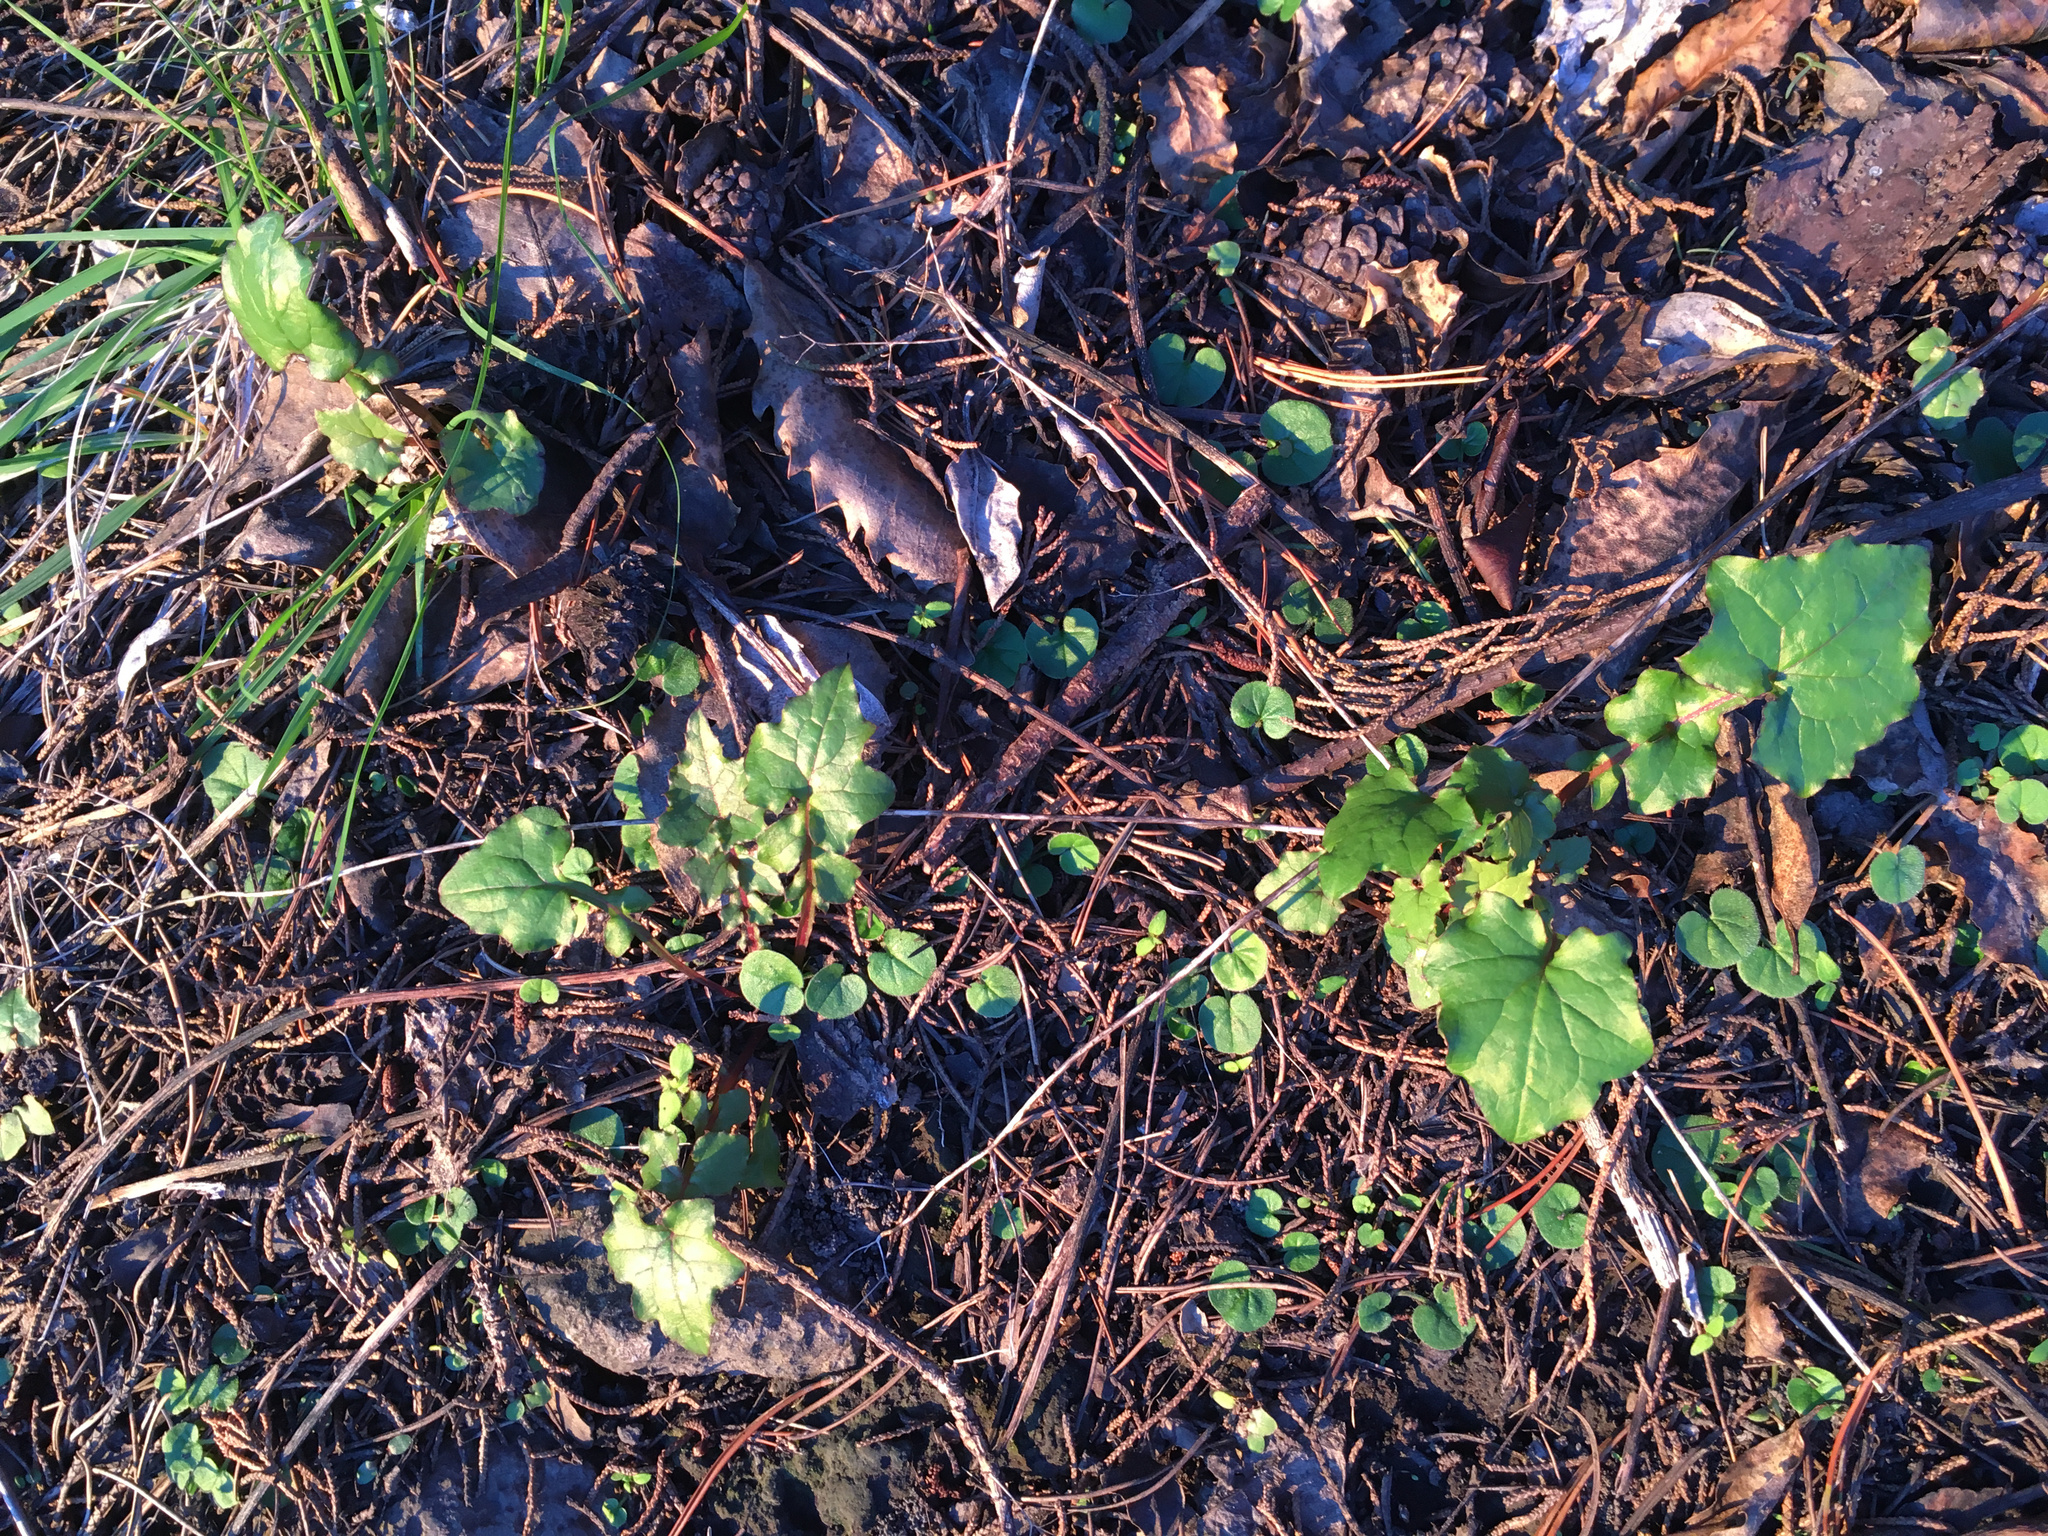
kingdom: Plantae
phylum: Tracheophyta
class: Magnoliopsida
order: Asterales
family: Asteraceae
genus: Mycelis
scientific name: Mycelis muralis
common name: Wall lettuce
